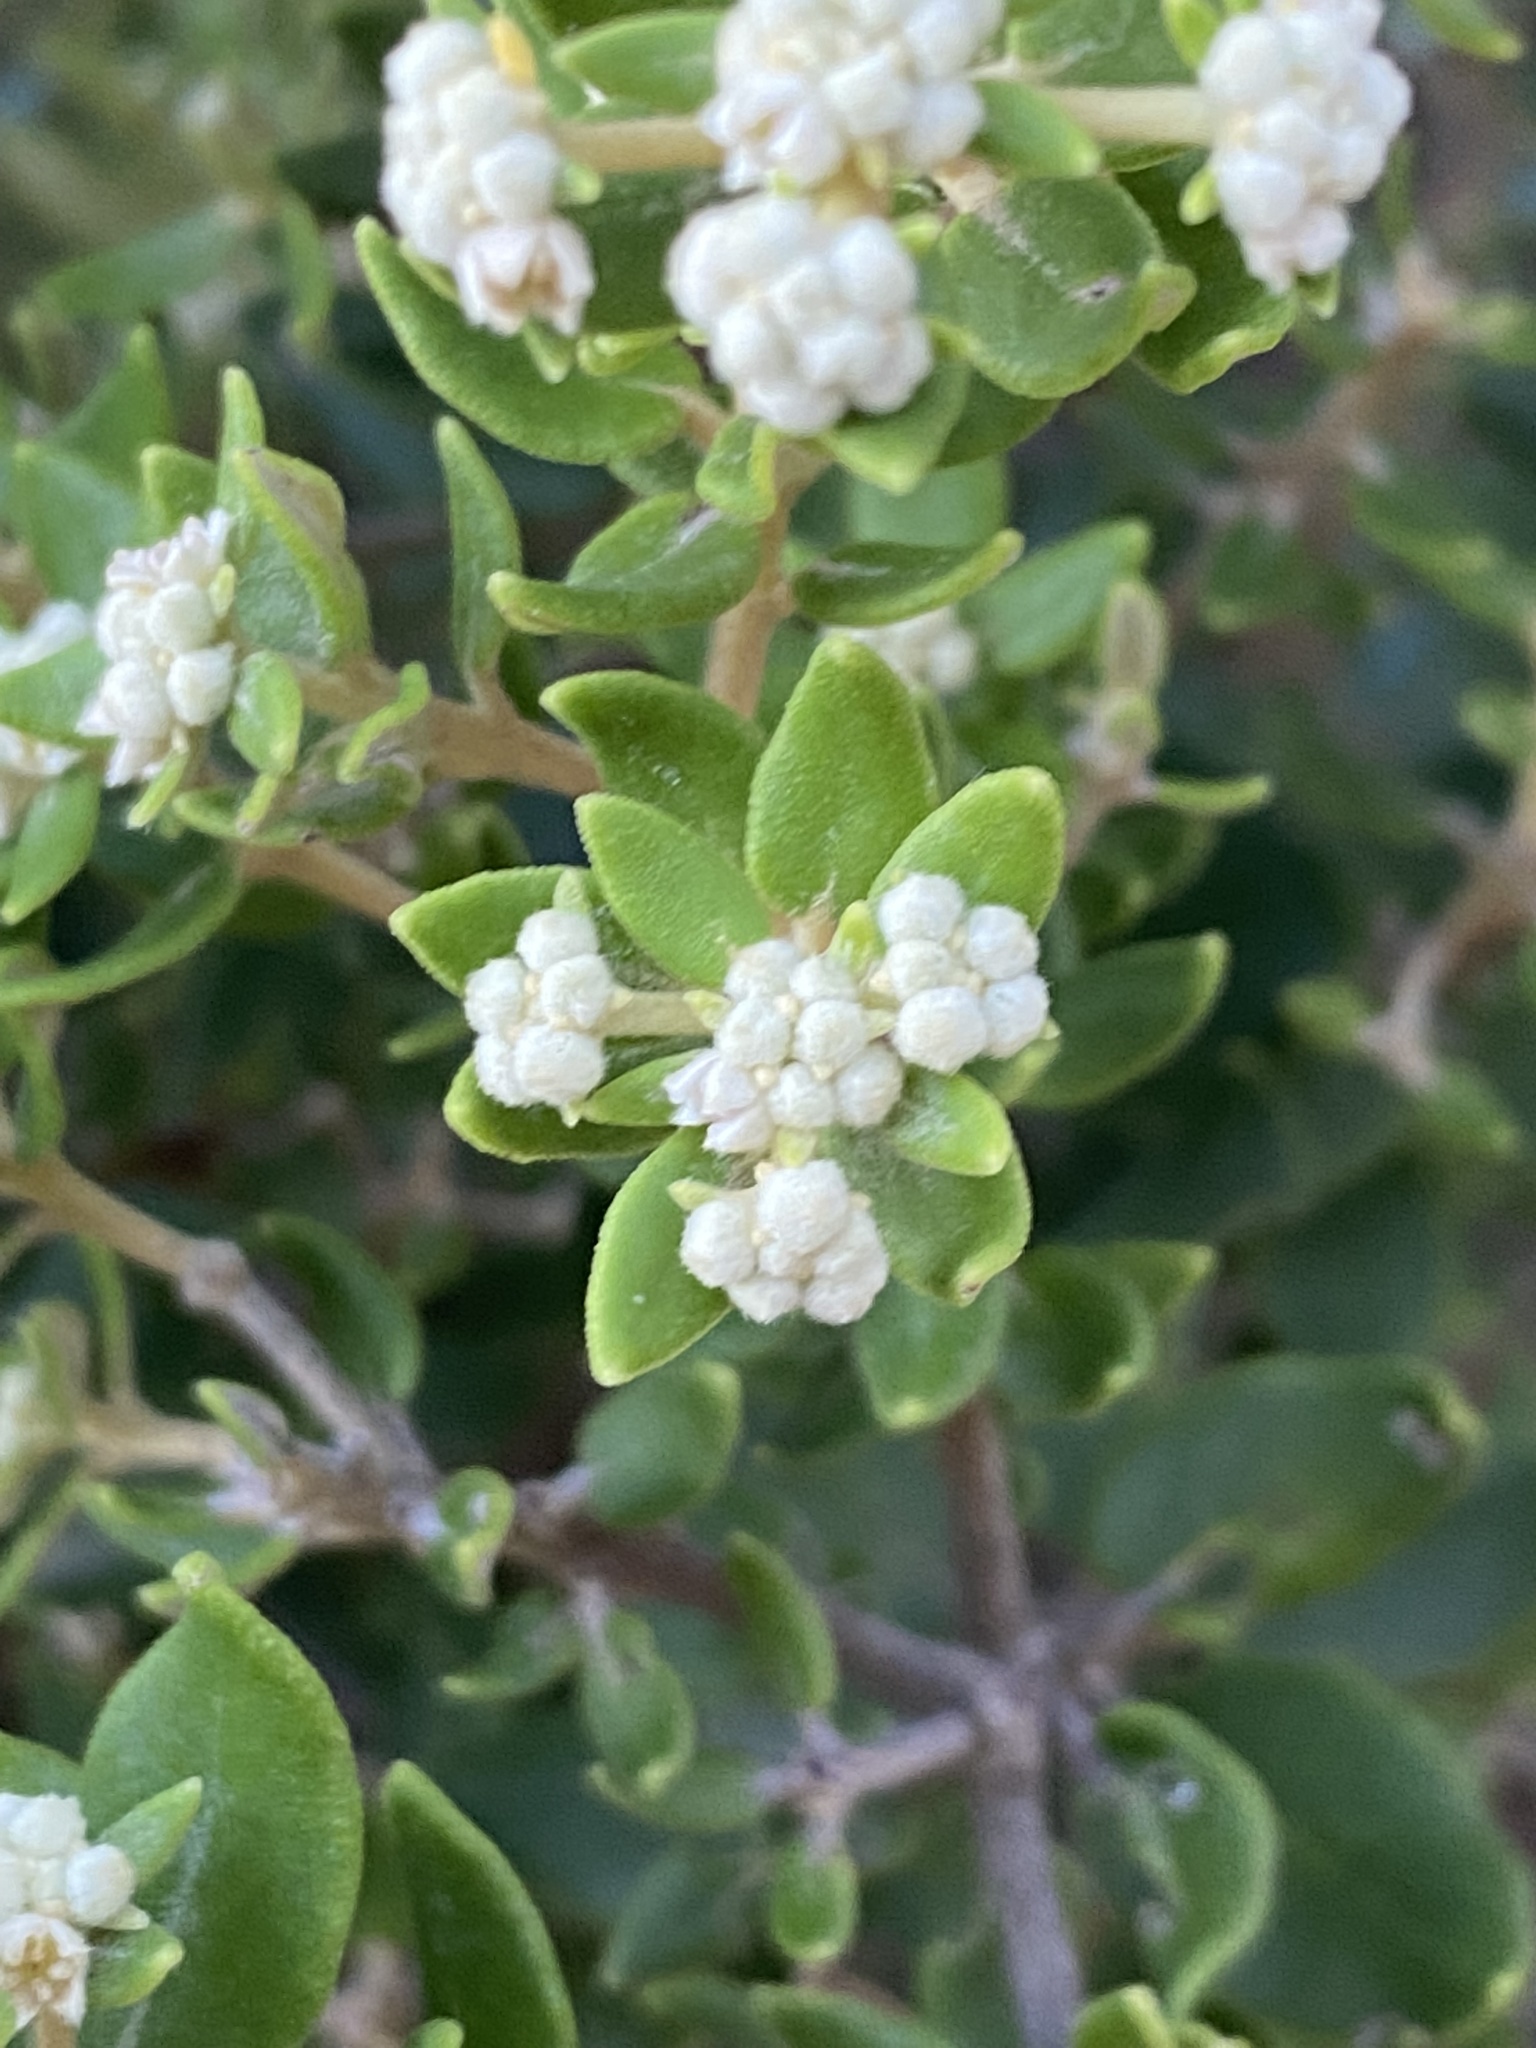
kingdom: Plantae
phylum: Tracheophyta
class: Magnoliopsida
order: Rosales
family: Rhamnaceae
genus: Phylica
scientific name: Phylica buxifolia
